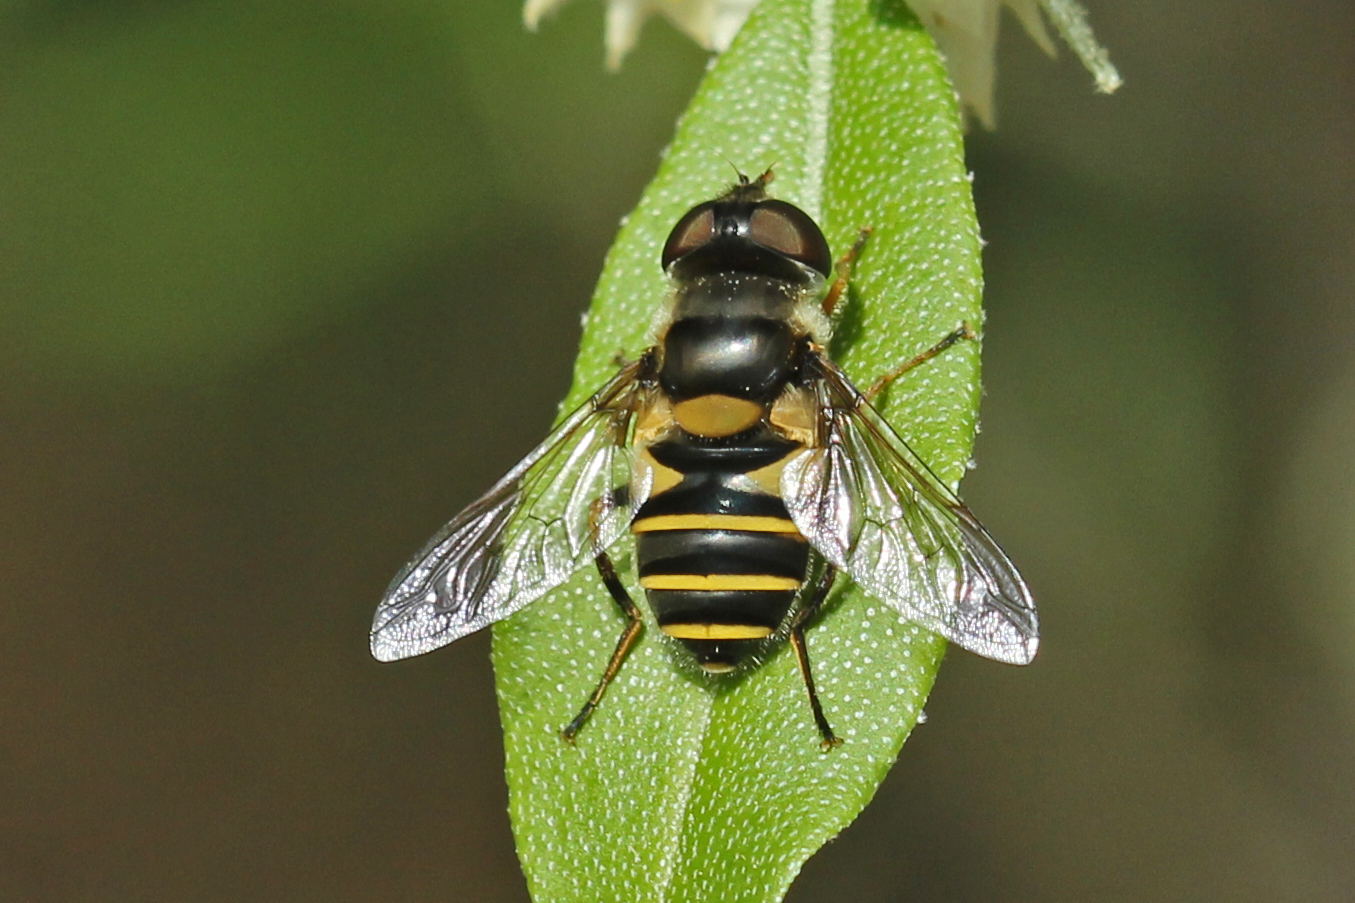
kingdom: Animalia
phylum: Arthropoda
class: Insecta
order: Diptera
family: Syrphidae
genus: Eristalis
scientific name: Eristalis transversa
